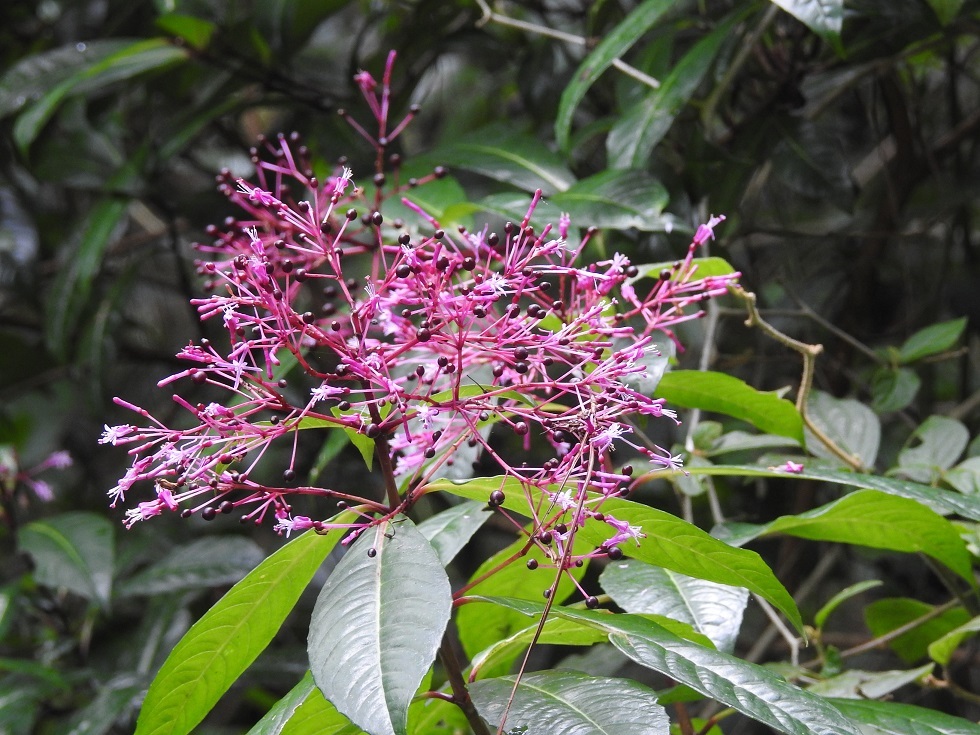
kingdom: Plantae
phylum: Tracheophyta
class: Magnoliopsida
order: Myrtales
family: Onagraceae
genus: Fuchsia
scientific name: Fuchsia paniculata
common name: Shrubby fuchsia
